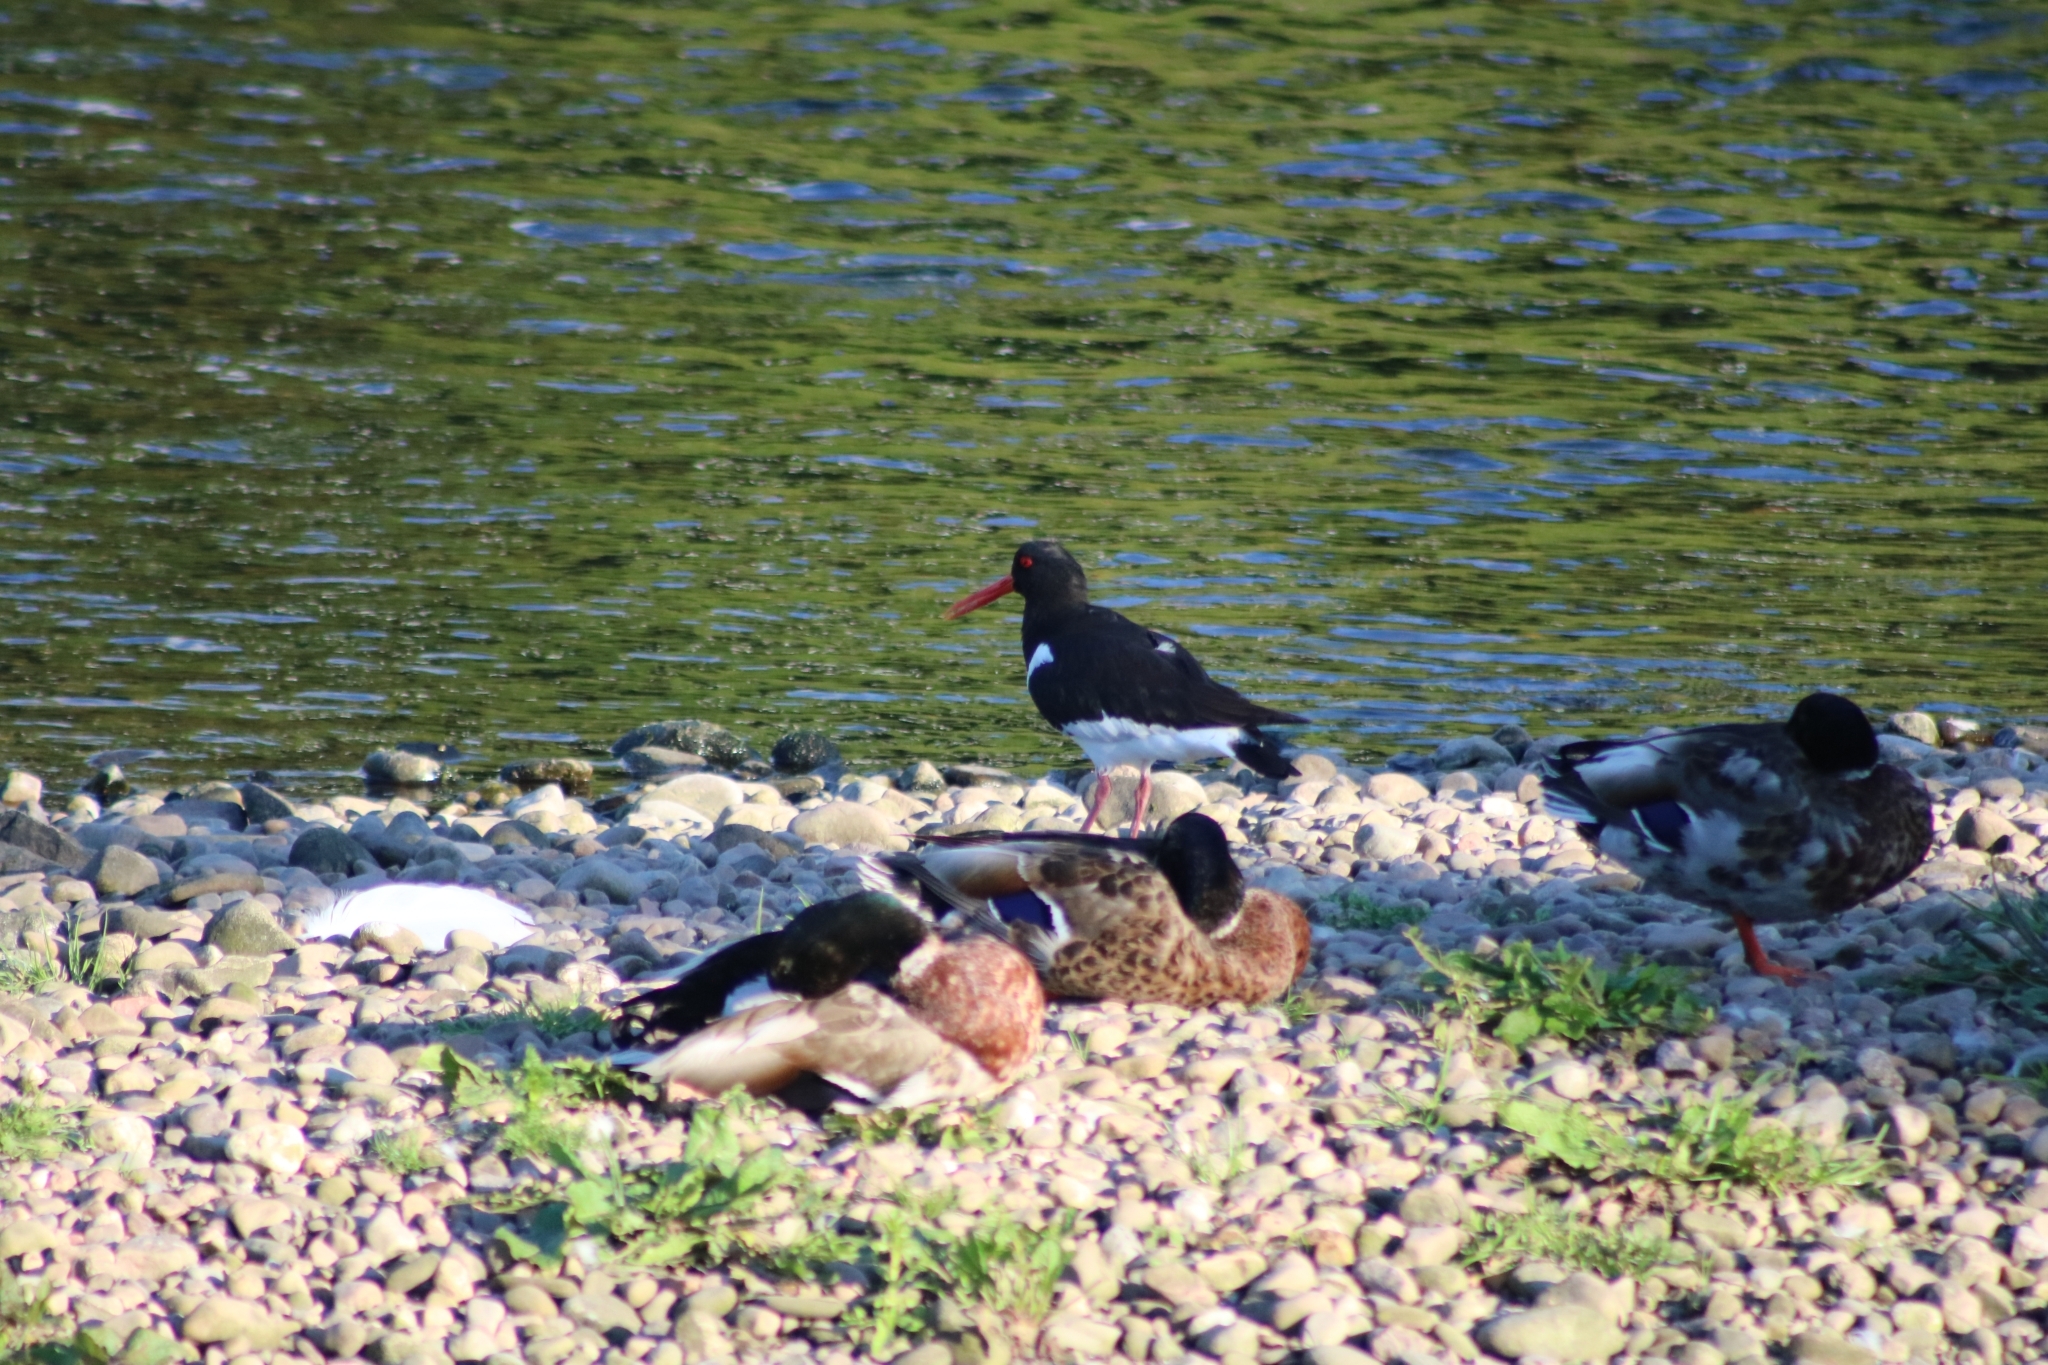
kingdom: Animalia
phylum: Chordata
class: Aves
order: Charadriiformes
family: Haematopodidae
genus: Haematopus
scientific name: Haematopus ostralegus
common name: Eurasian oystercatcher
